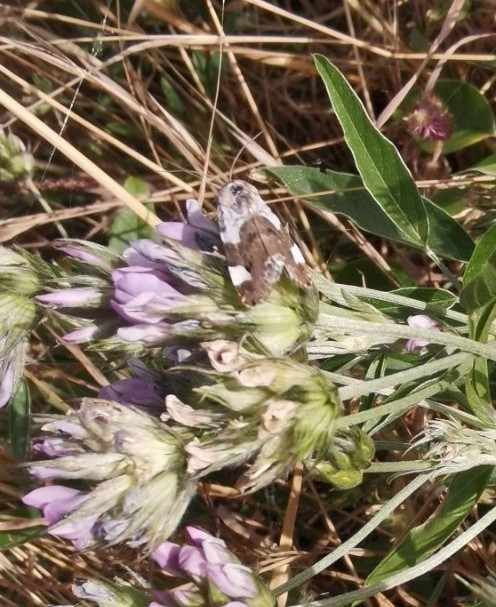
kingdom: Animalia
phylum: Arthropoda
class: Insecta
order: Lepidoptera
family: Noctuidae
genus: Acontia
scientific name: Acontia lucida
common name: Pale shoulder
